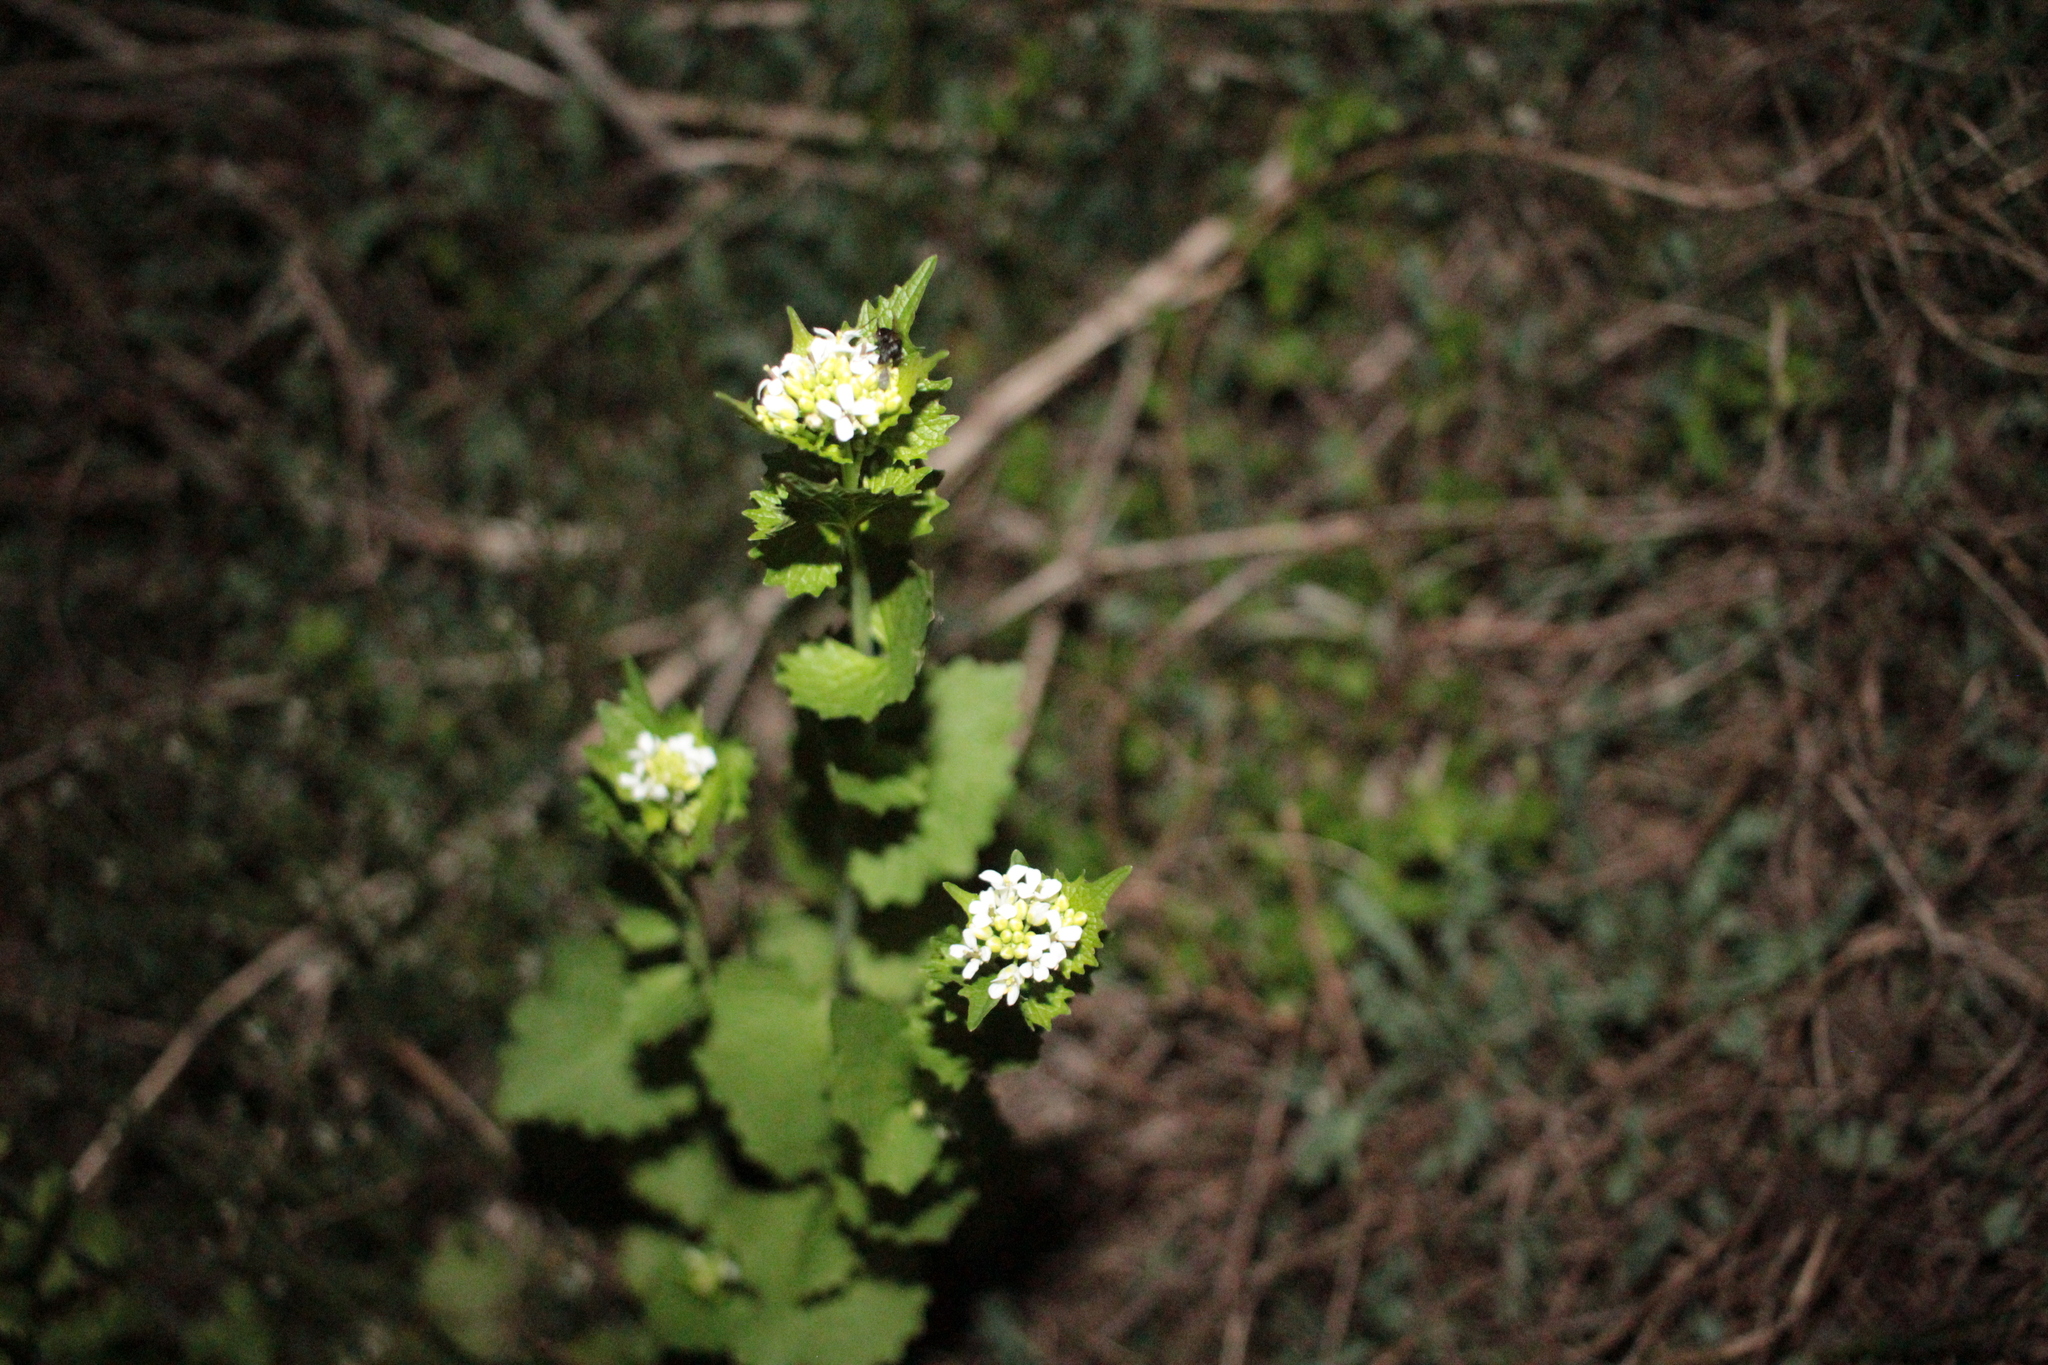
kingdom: Plantae
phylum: Tracheophyta
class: Magnoliopsida
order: Brassicales
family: Brassicaceae
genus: Alliaria
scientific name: Alliaria petiolata
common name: Garlic mustard
